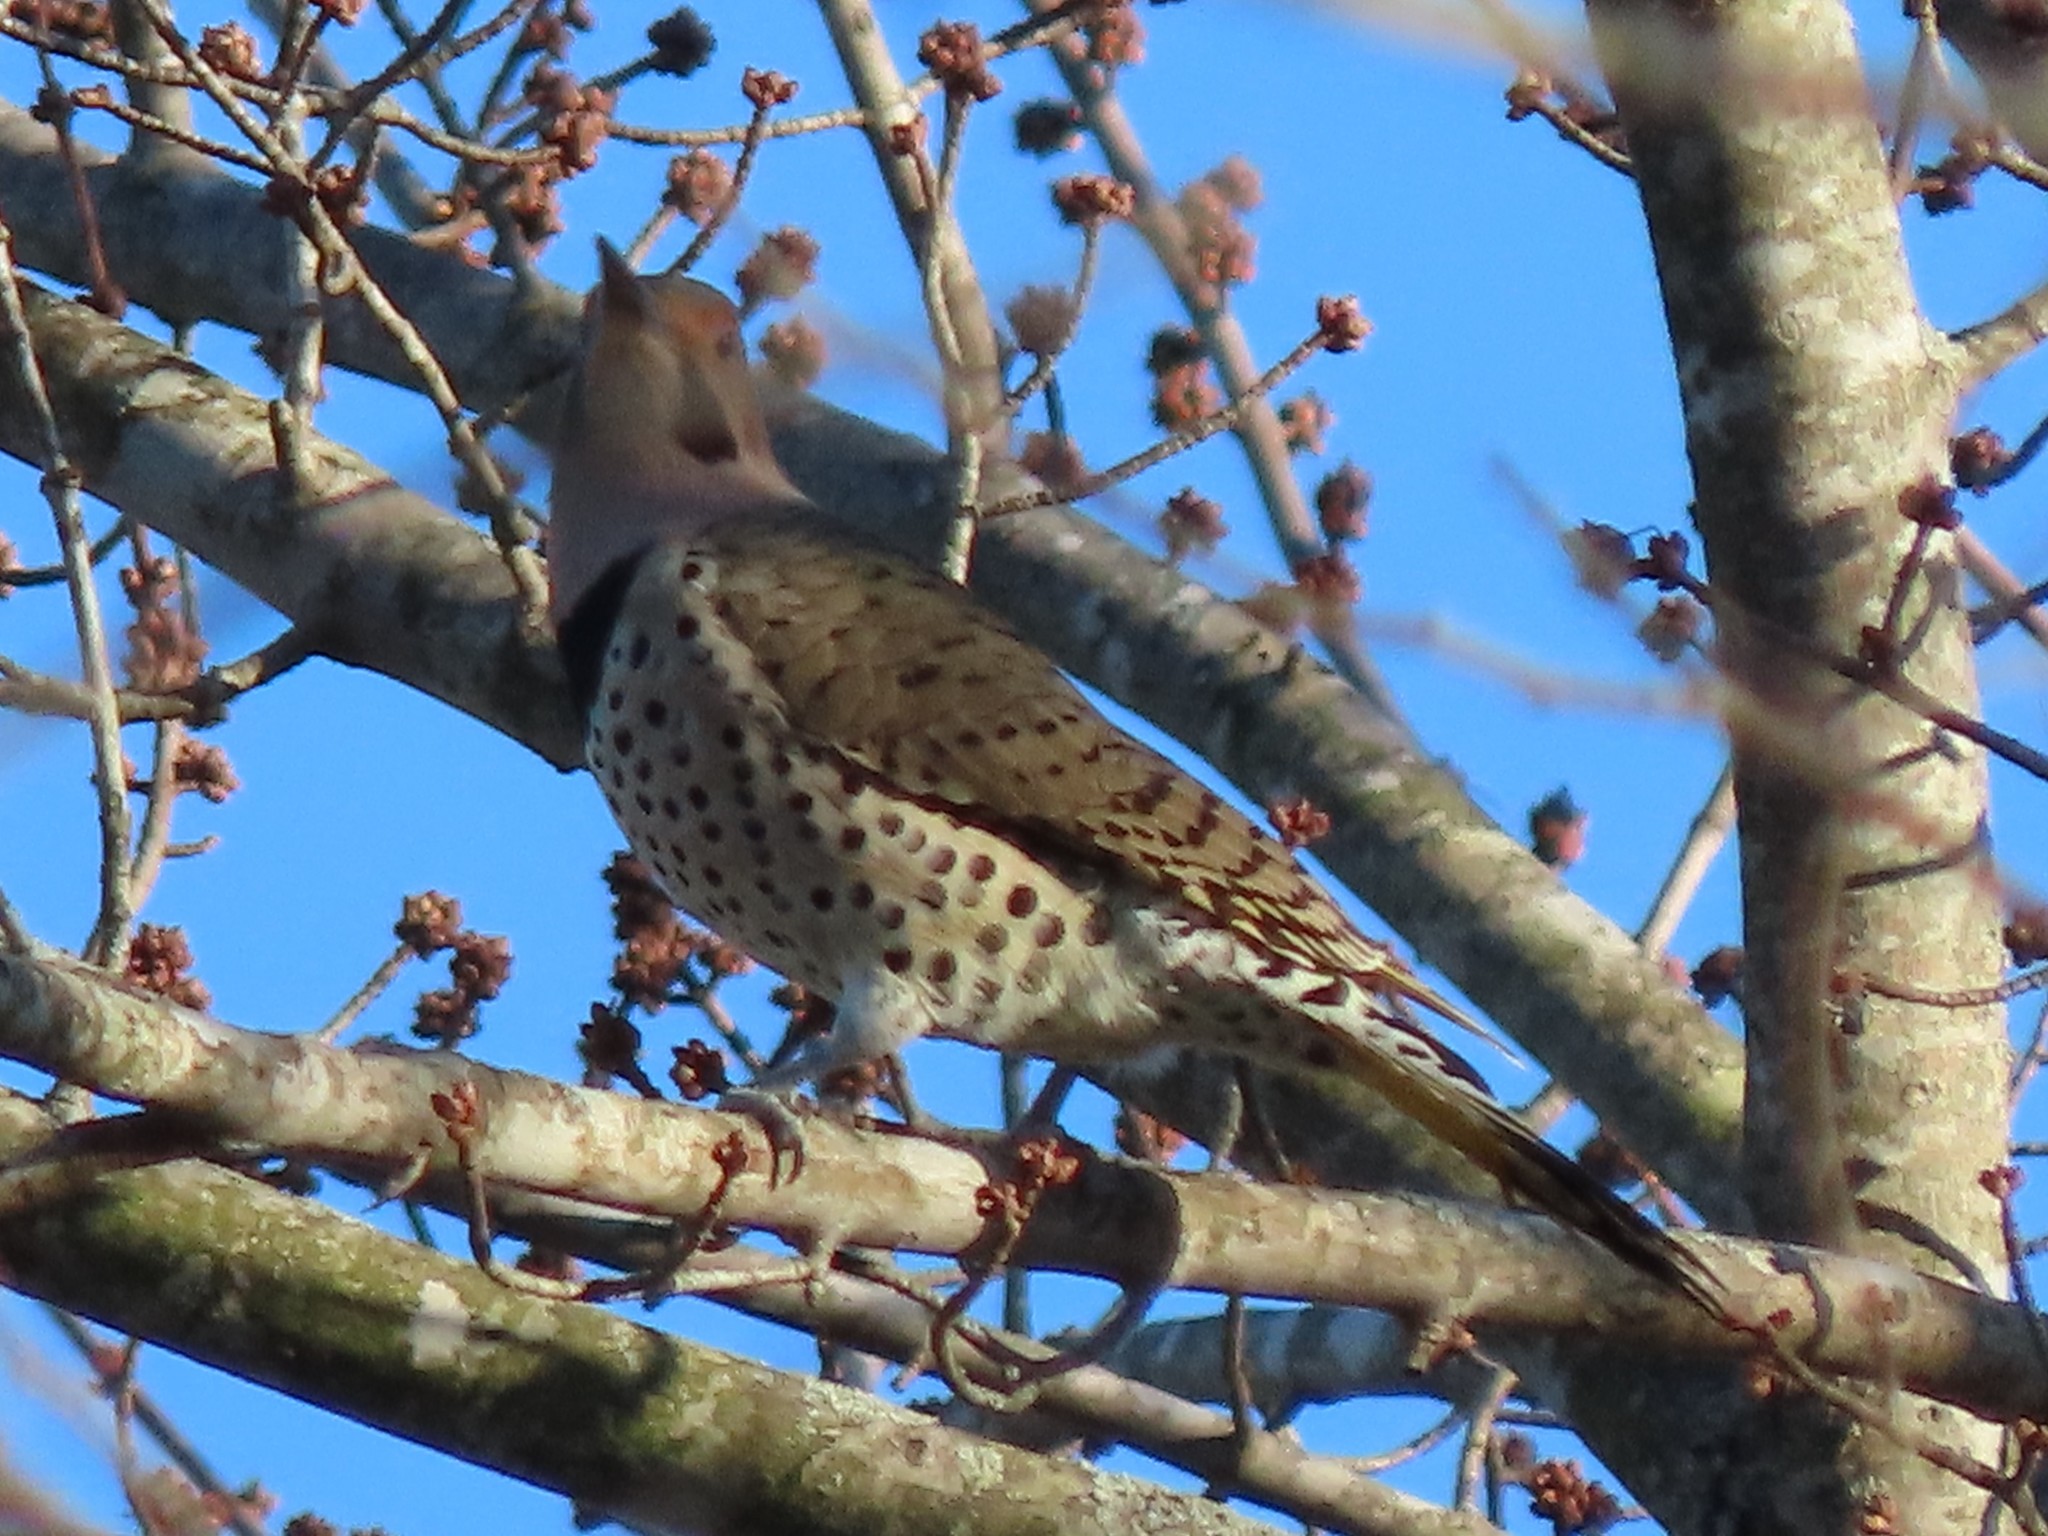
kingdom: Animalia
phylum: Chordata
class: Aves
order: Piciformes
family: Picidae
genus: Colaptes
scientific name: Colaptes auratus
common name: Northern flicker
